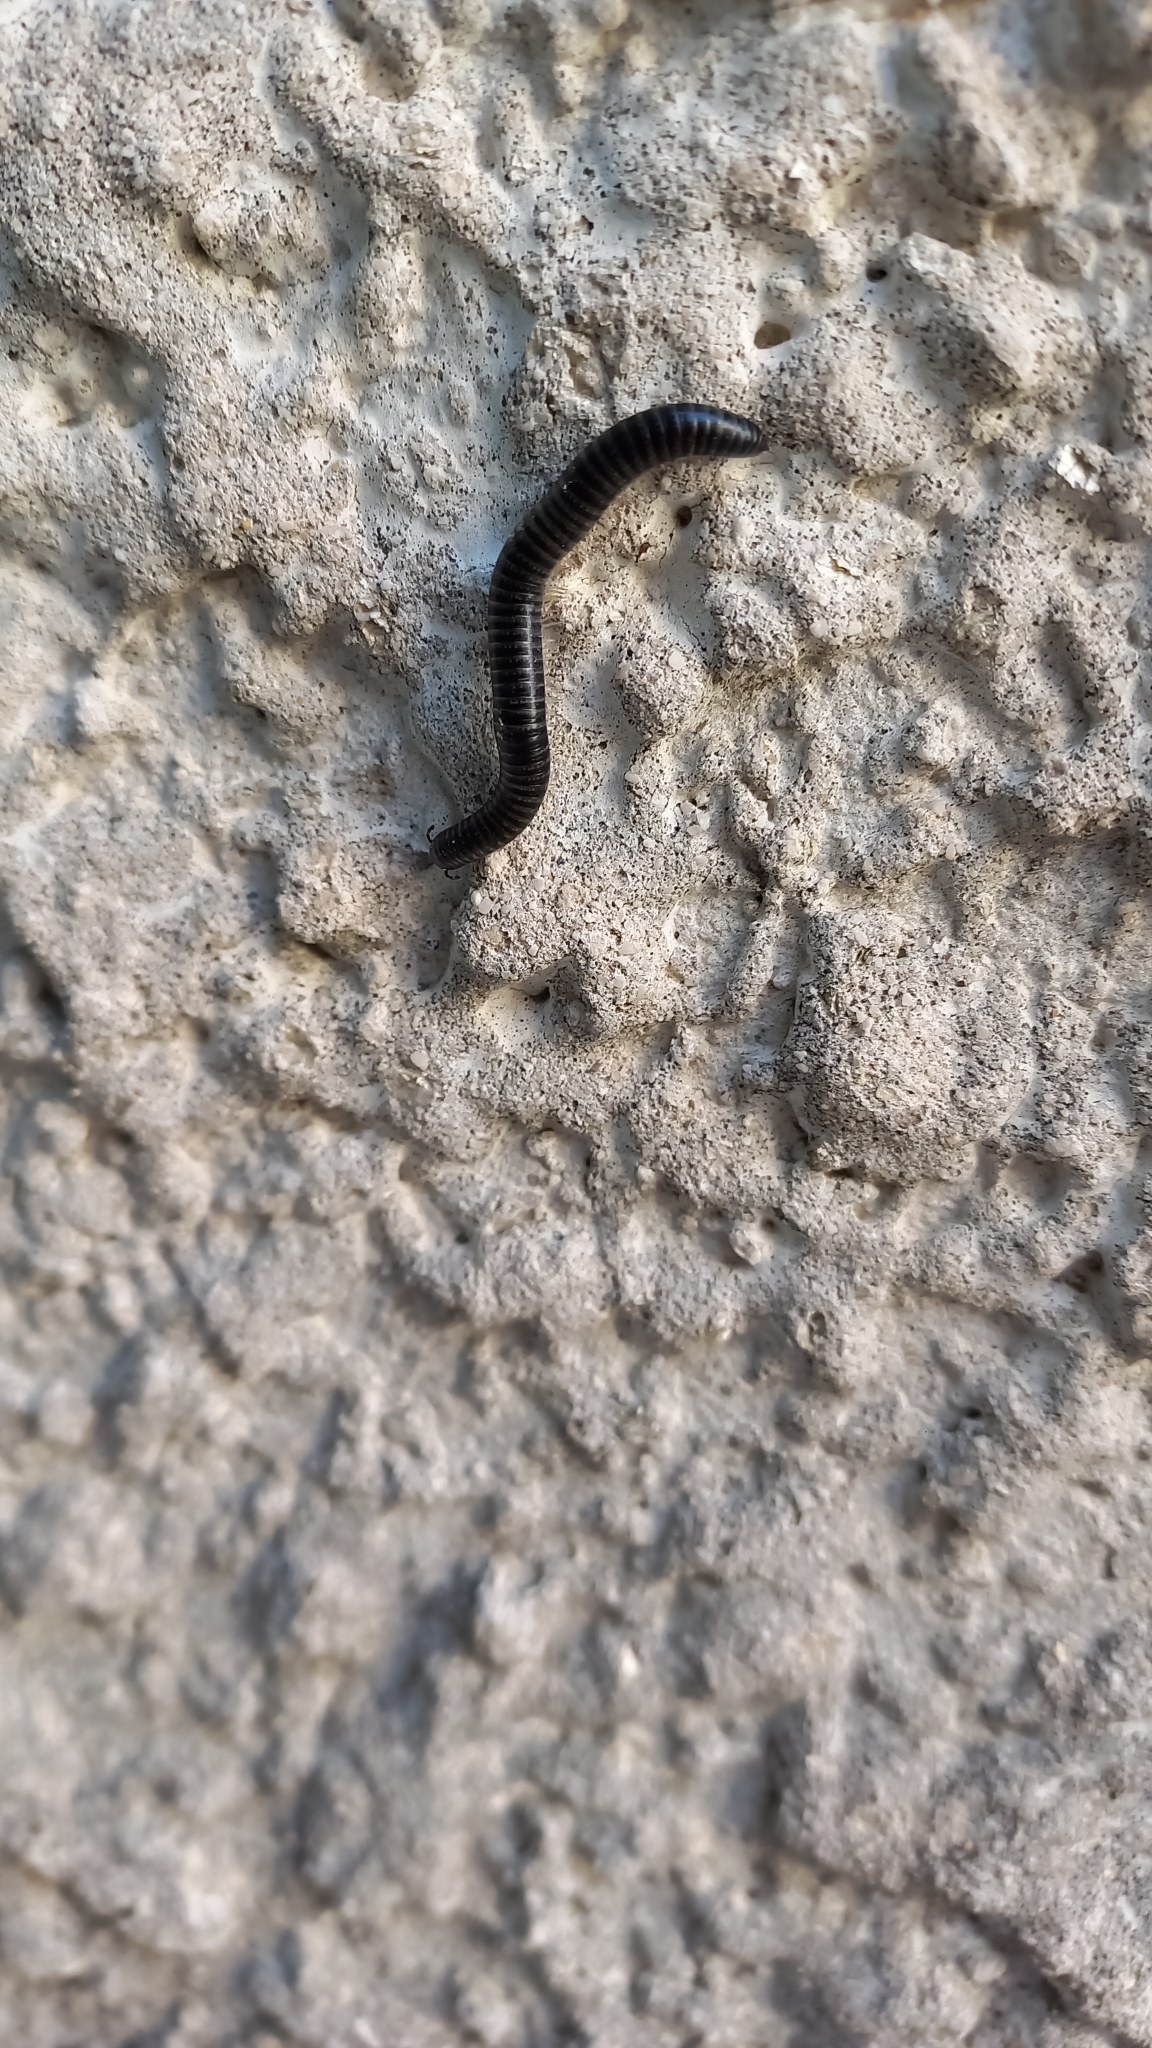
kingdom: Animalia
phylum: Arthropoda
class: Diplopoda
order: Julida
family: Julidae
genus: Ommatoiulus
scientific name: Ommatoiulus sabulosus
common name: Striped millipede
